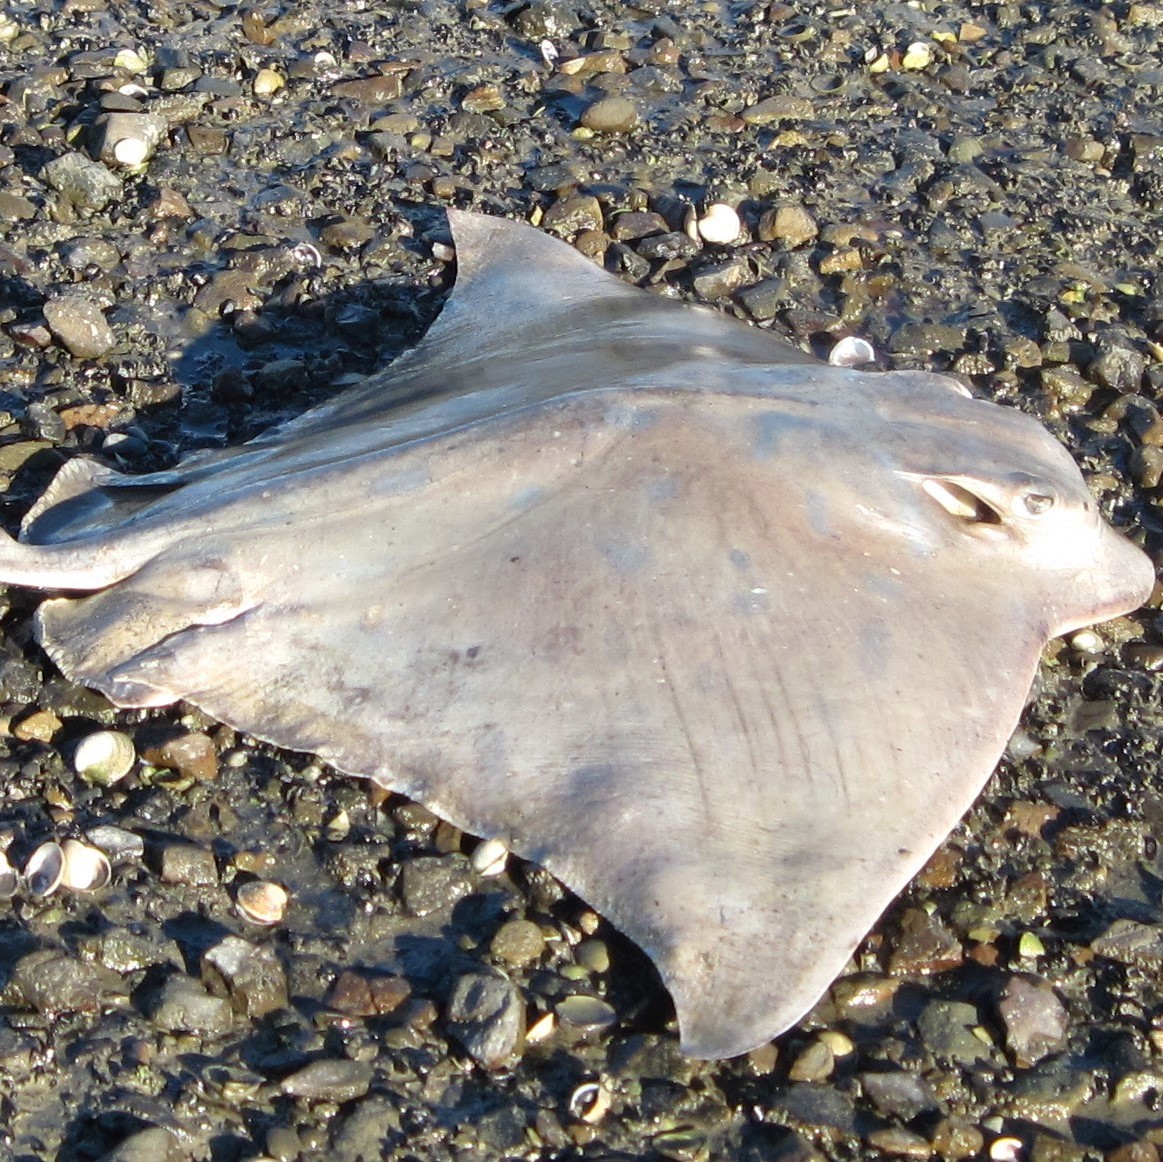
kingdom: Animalia
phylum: Chordata
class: Elasmobranchii
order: Myliobatiformes
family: Myliobatidae
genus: Myliobatis
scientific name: Myliobatis tenuicaudatus
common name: Eagle ray
